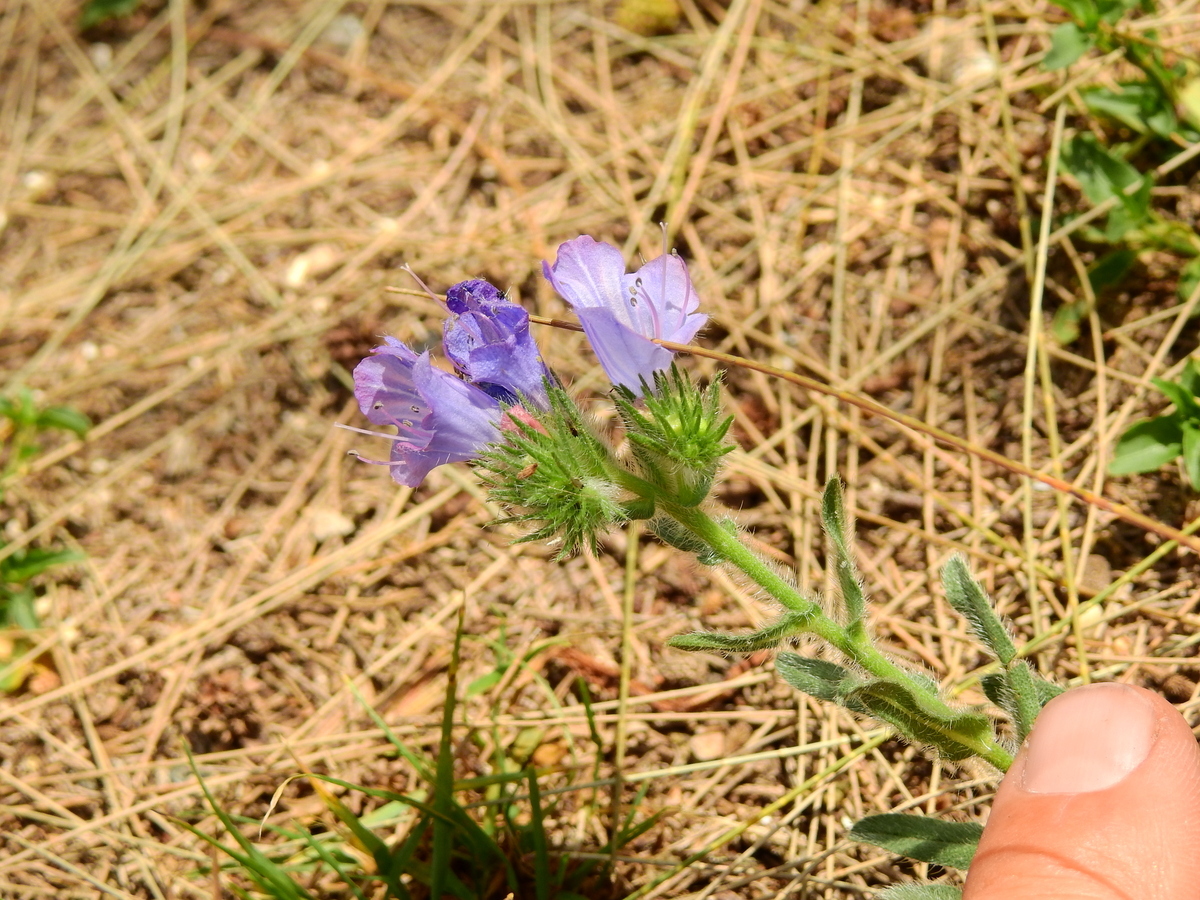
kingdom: Plantae
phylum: Tracheophyta
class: Magnoliopsida
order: Boraginales
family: Boraginaceae
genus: Echium
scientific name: Echium plantagineum
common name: Purple viper's-bugloss
